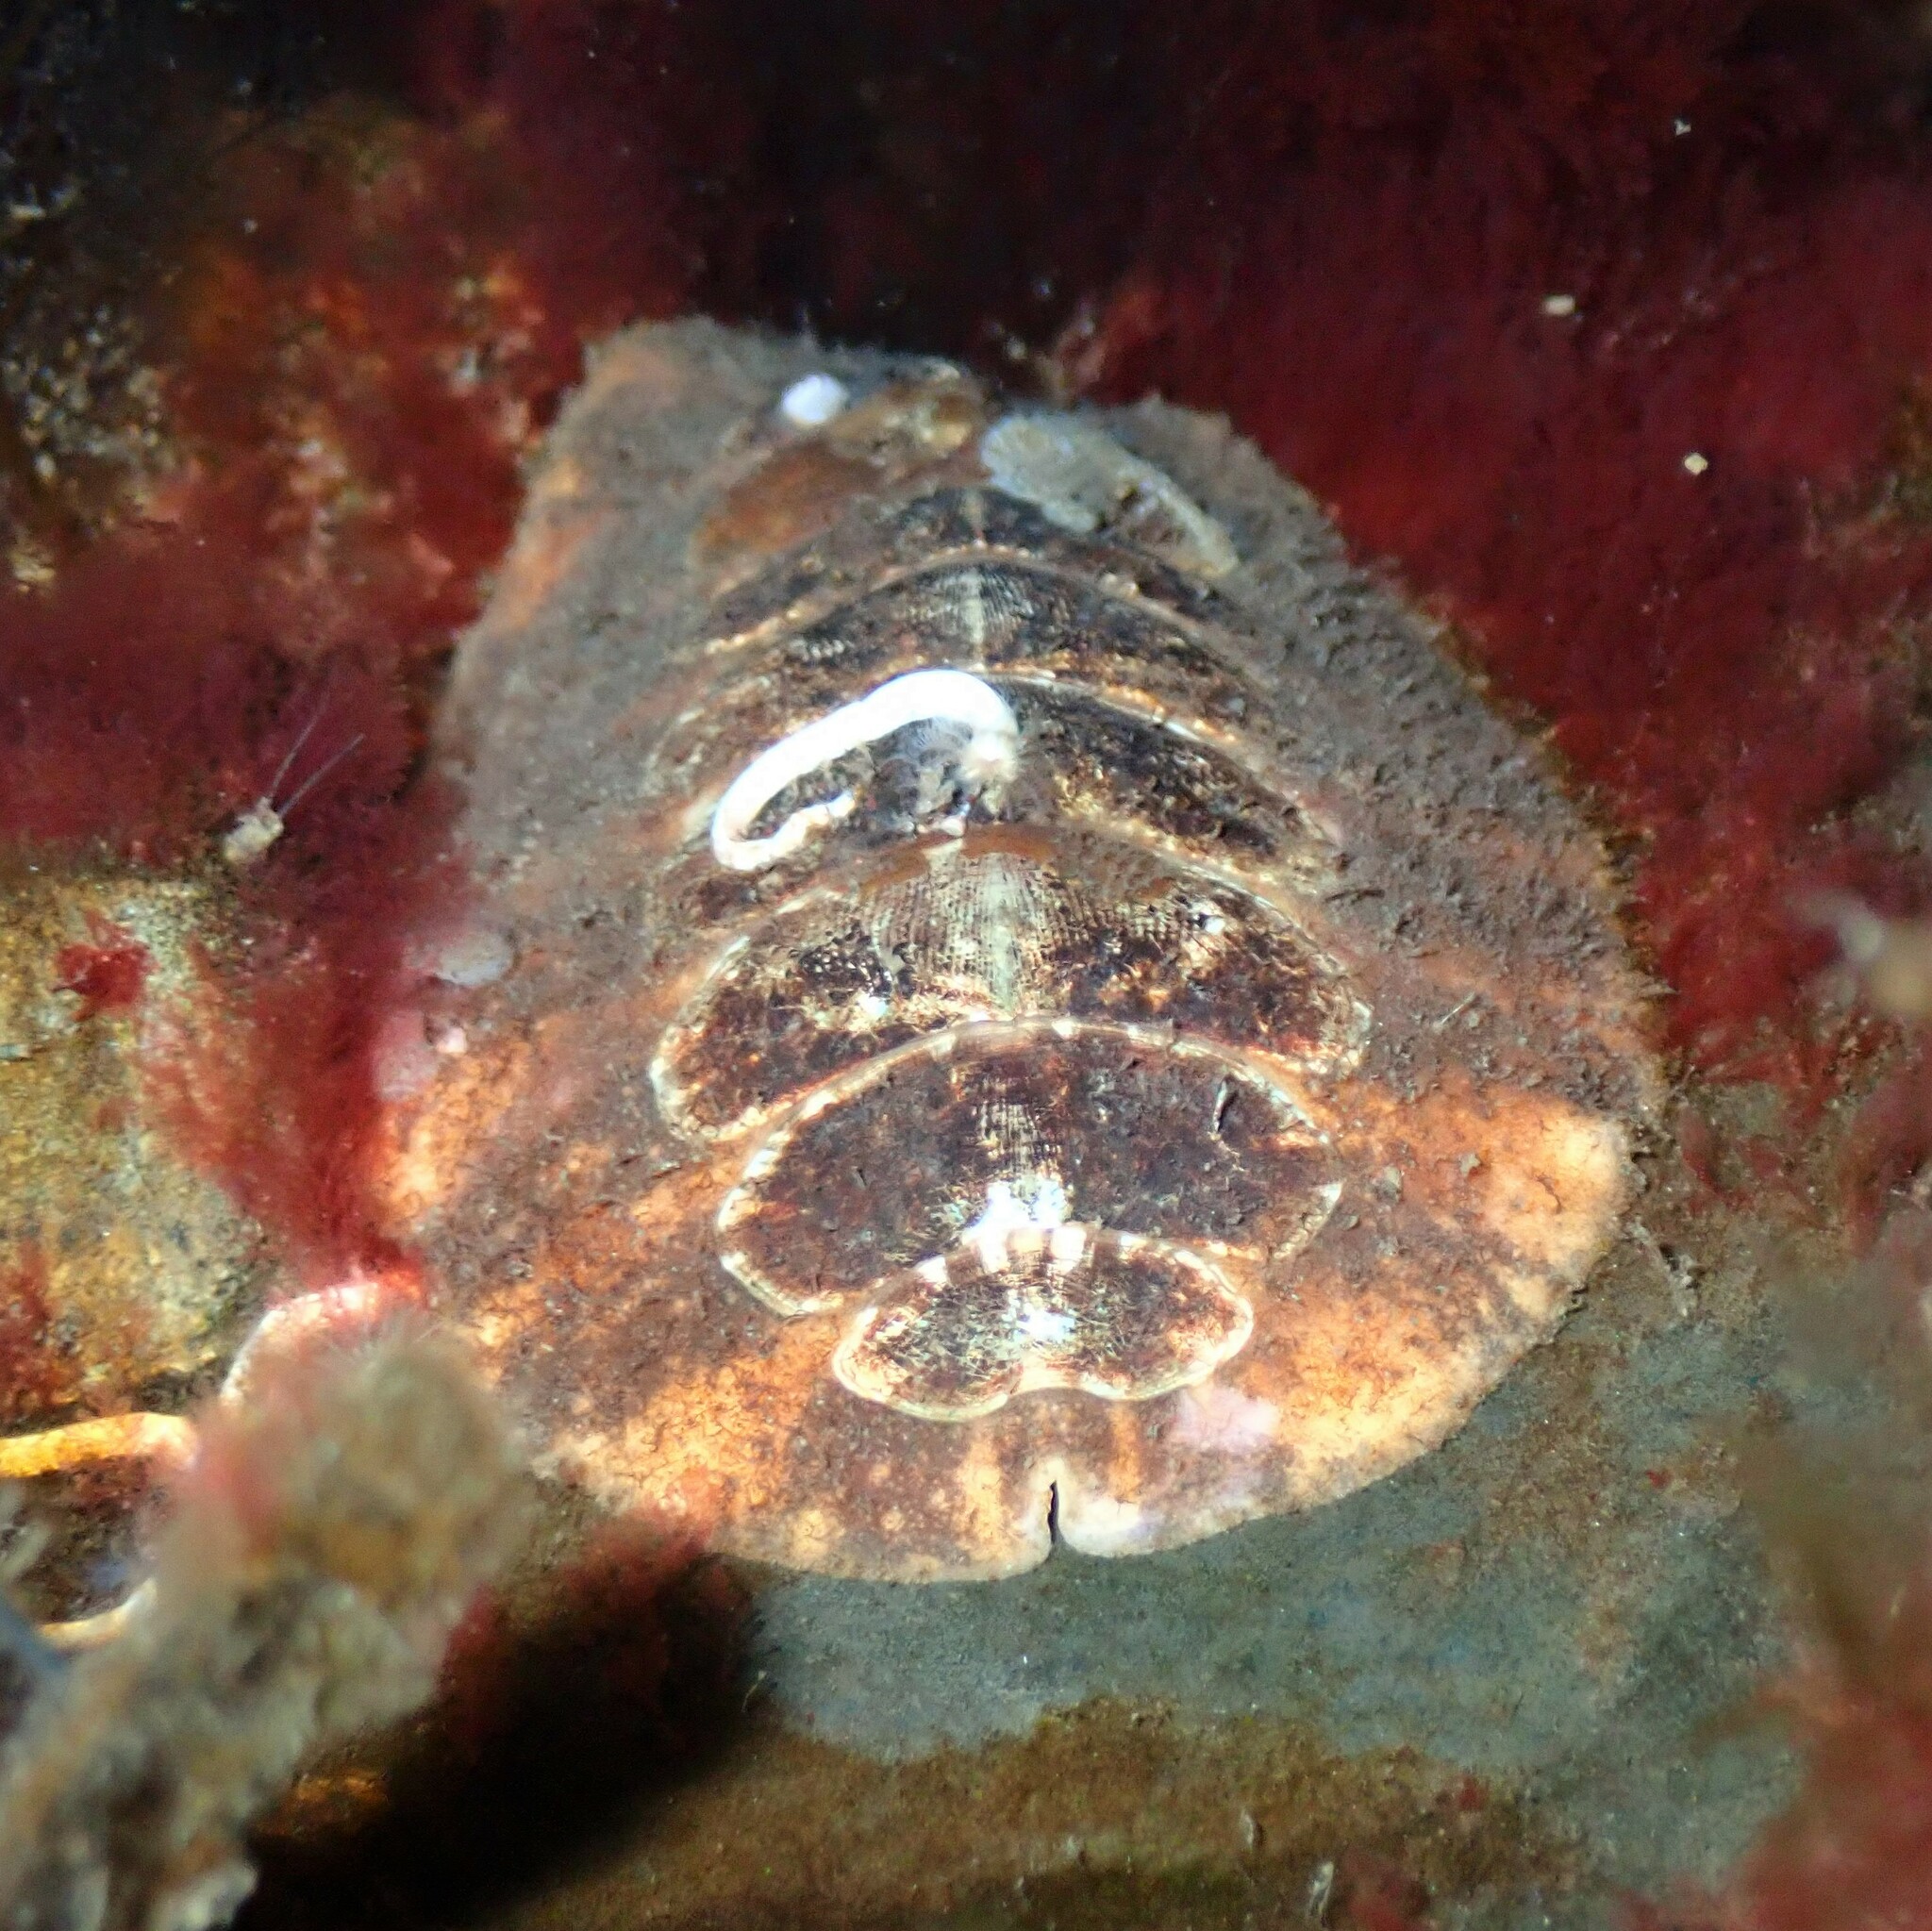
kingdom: Animalia
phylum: Mollusca
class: Polyplacophora
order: Chitonida
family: Mopaliidae
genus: Mopalia
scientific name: Mopalia hindsii
